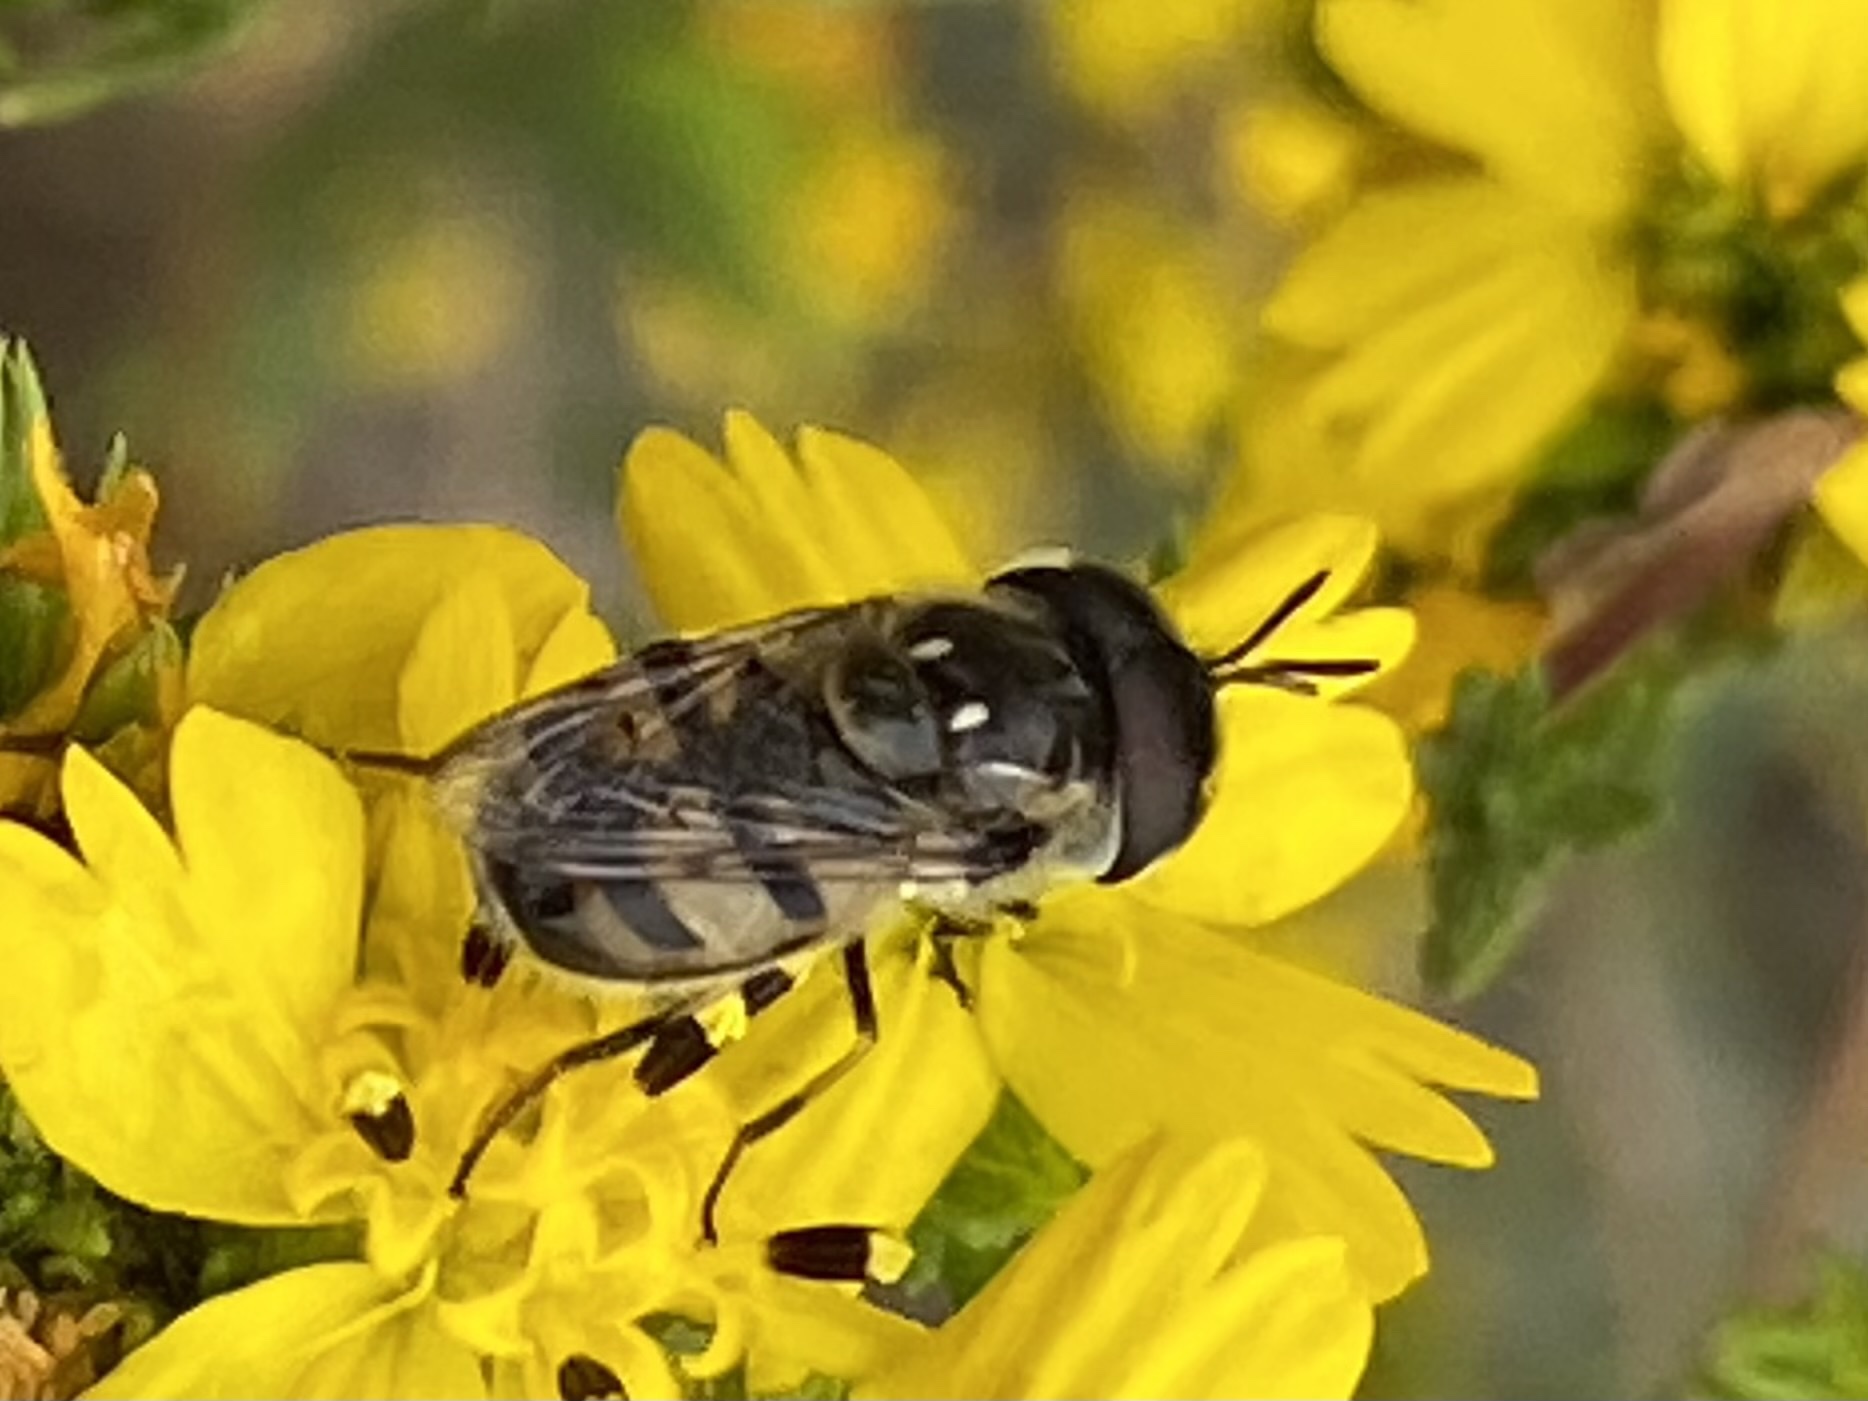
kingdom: Animalia
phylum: Arthropoda
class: Insecta
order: Diptera
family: Syrphidae
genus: Copestylum
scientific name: Copestylum marginatum
